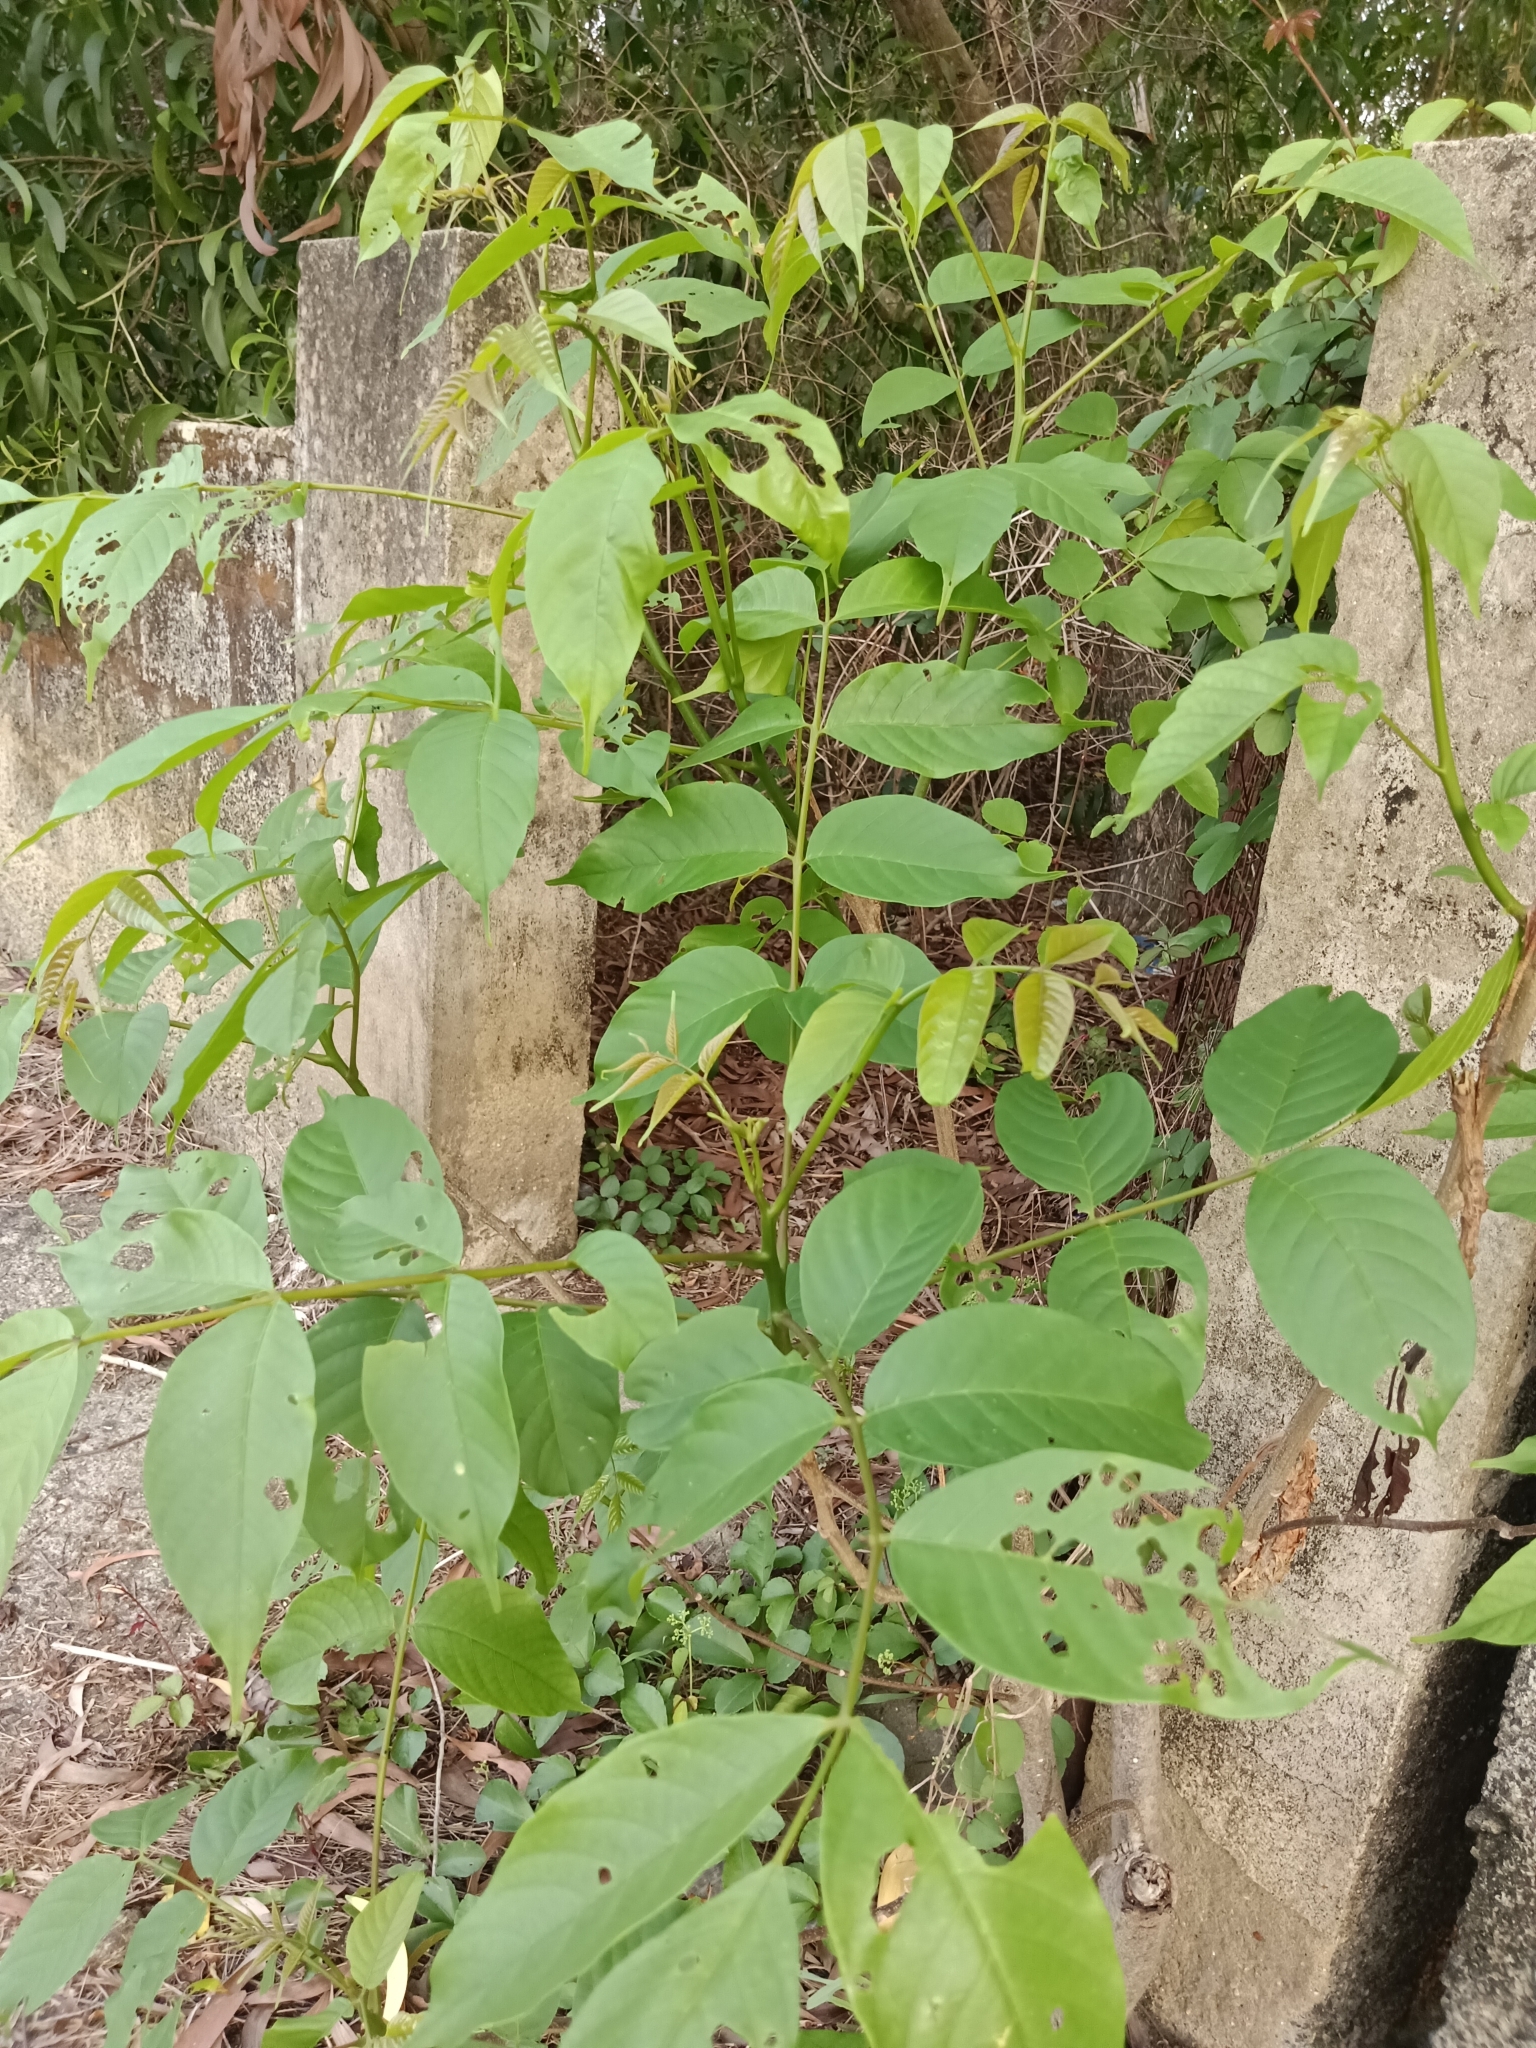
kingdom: Plantae
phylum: Tracheophyta
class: Magnoliopsida
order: Sapindales
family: Anacardiaceae
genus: Lannea
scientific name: Lannea coromandelica
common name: Indian ash tree
